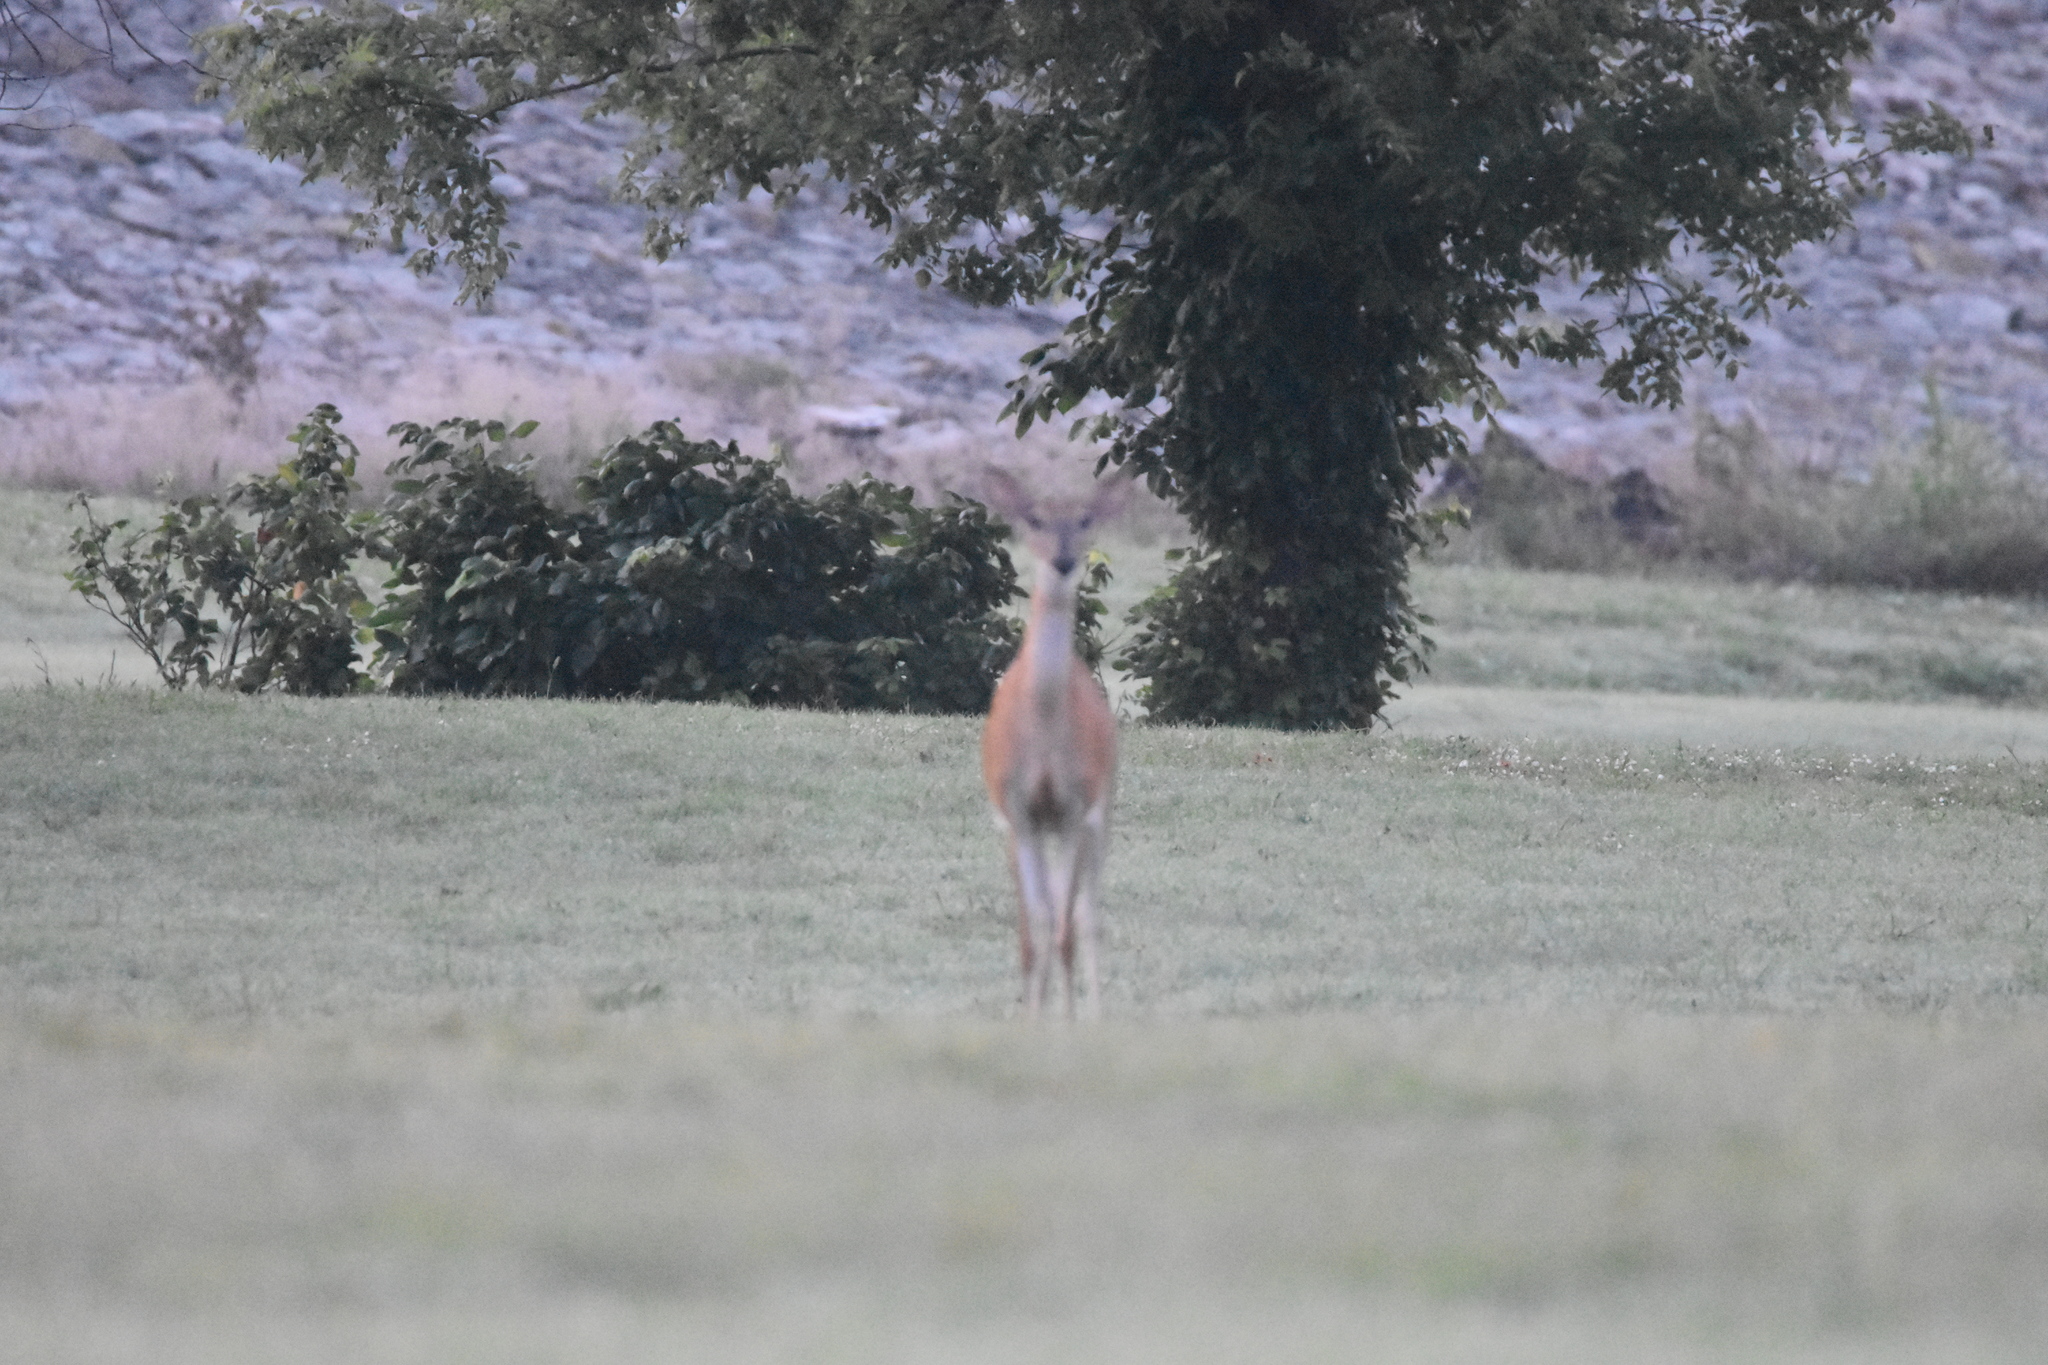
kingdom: Animalia
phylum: Chordata
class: Mammalia
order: Artiodactyla
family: Cervidae
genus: Odocoileus
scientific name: Odocoileus virginianus
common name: White-tailed deer
